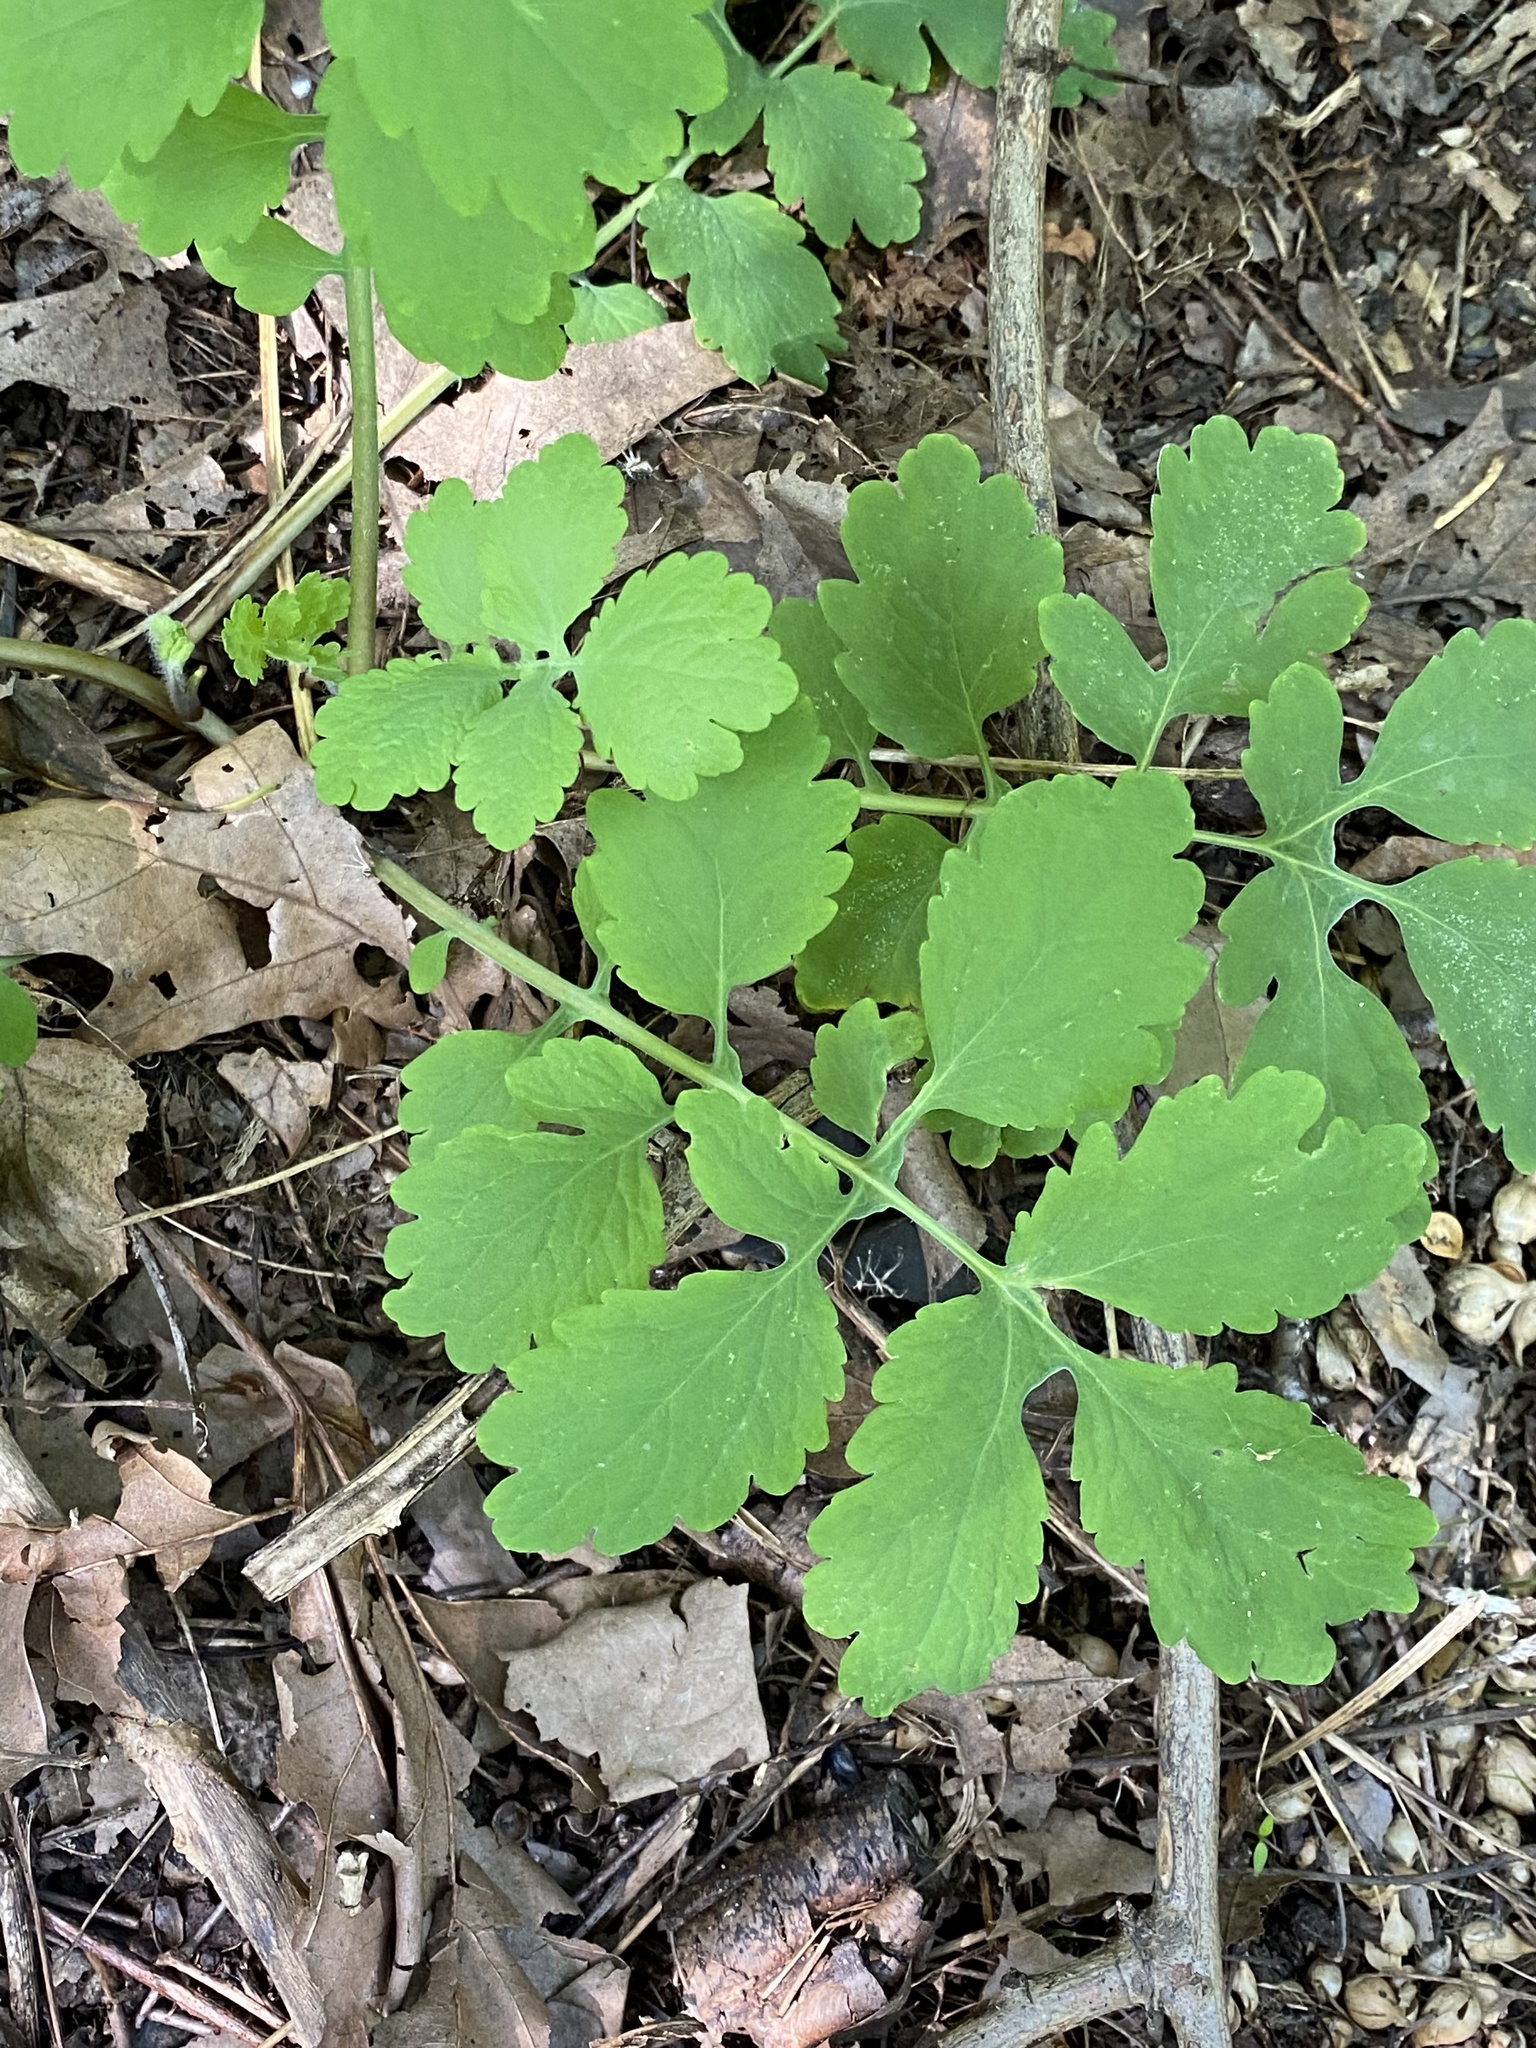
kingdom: Plantae
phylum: Tracheophyta
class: Magnoliopsida
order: Ranunculales
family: Papaveraceae
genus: Chelidonium
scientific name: Chelidonium majus
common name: Greater celandine
